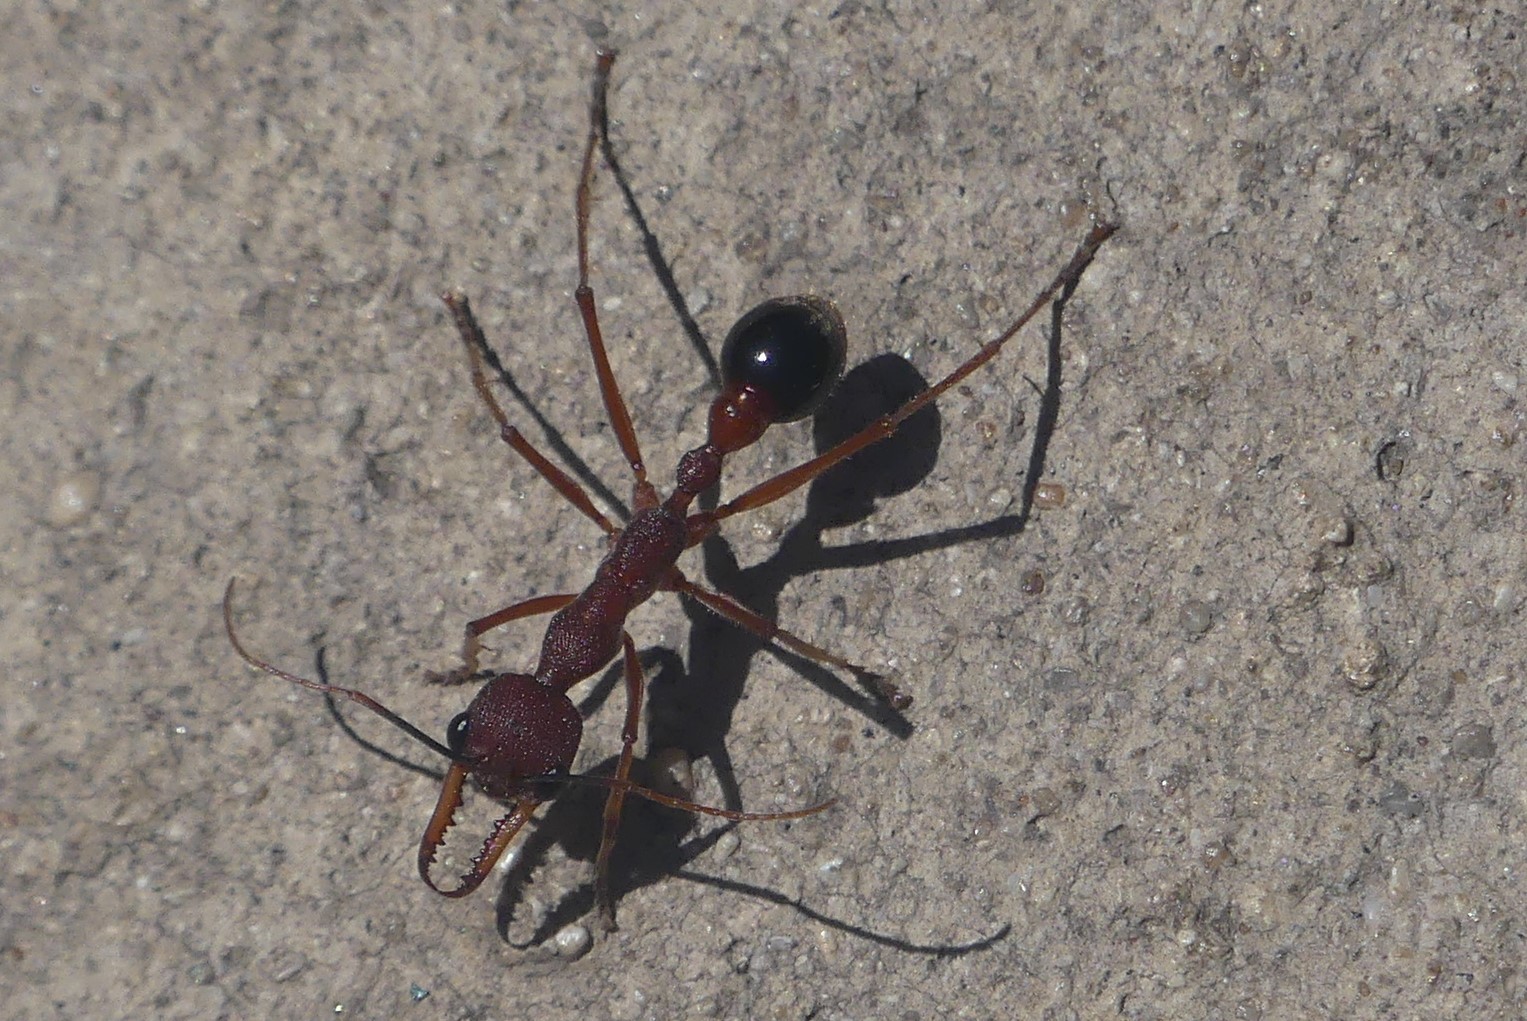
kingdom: Animalia
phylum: Arthropoda
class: Insecta
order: Hymenoptera
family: Formicidae
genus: Myrmecia
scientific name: Myrmecia analis
